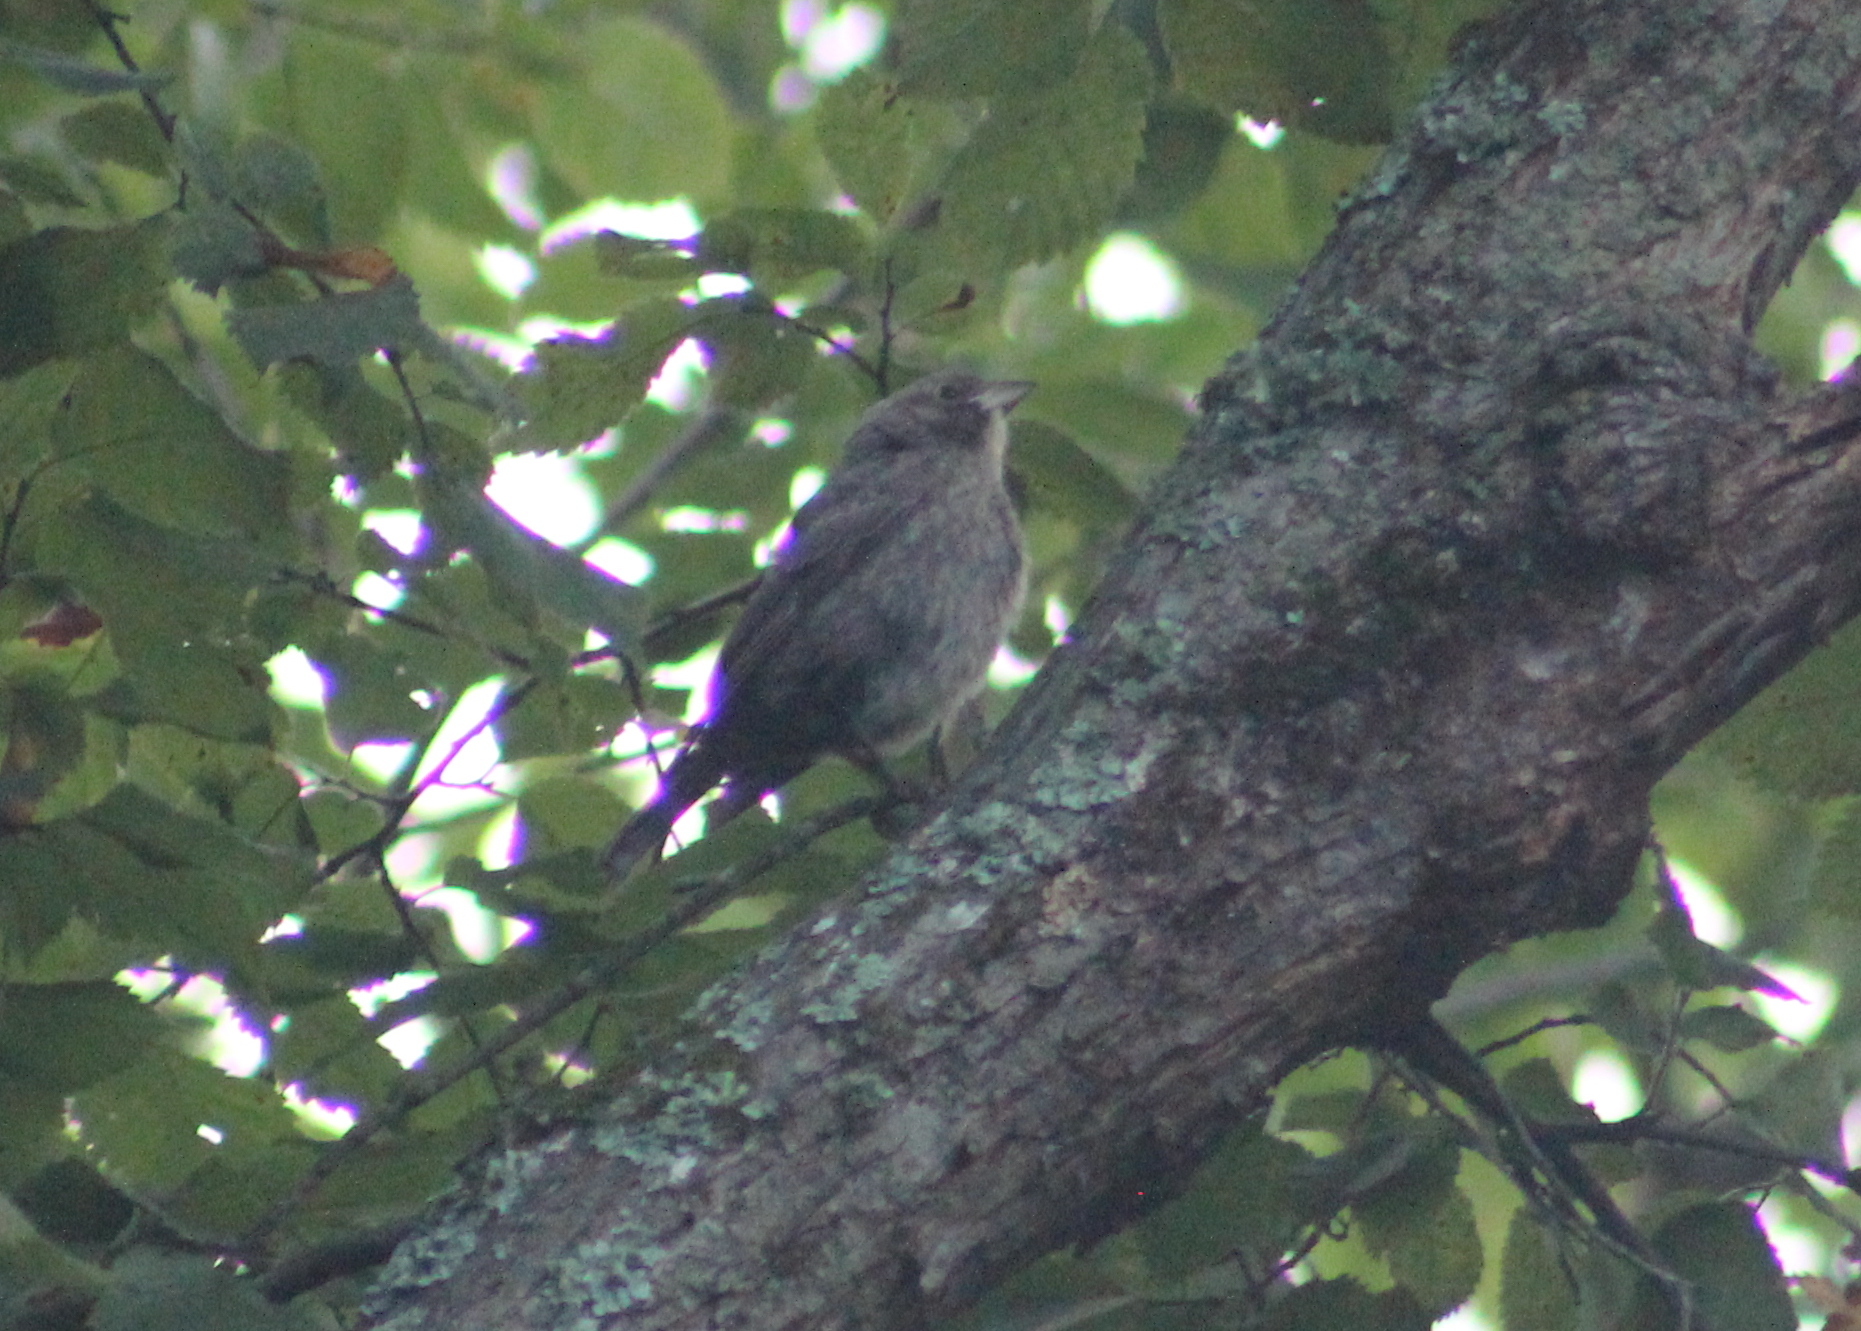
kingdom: Animalia
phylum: Chordata
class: Aves
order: Passeriformes
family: Icteridae
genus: Molothrus
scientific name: Molothrus ater
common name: Brown-headed cowbird
